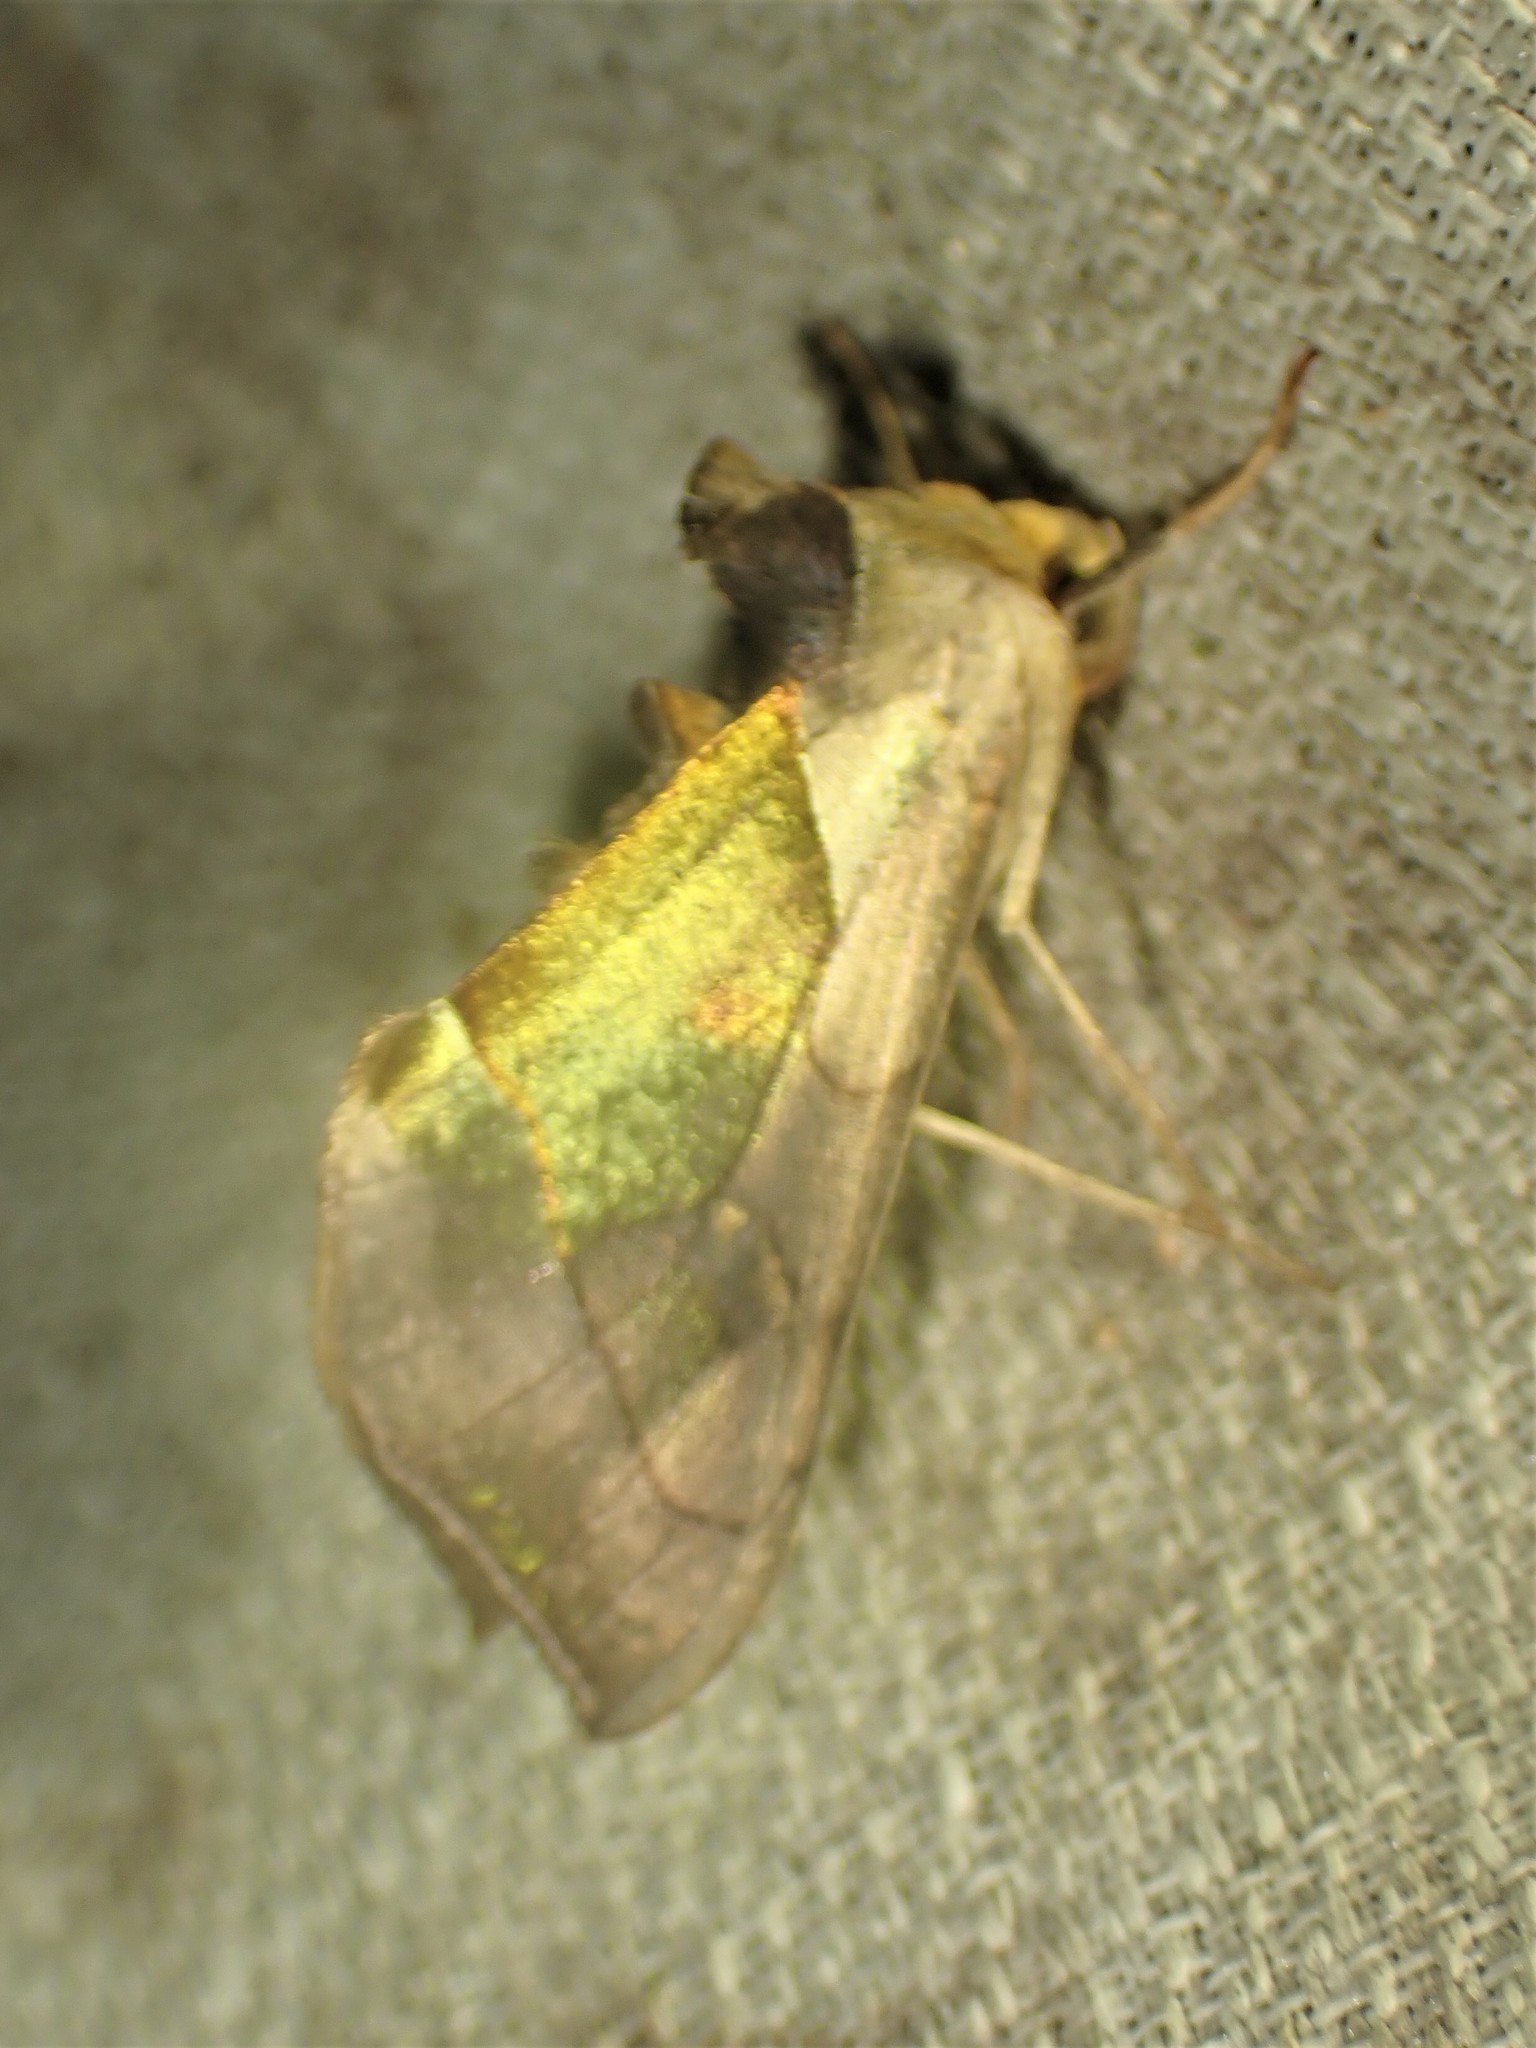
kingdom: Animalia
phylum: Arthropoda
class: Insecta
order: Lepidoptera
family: Noctuidae
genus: Diachrysia
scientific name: Diachrysia balluca
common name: Green-patched looper moth
